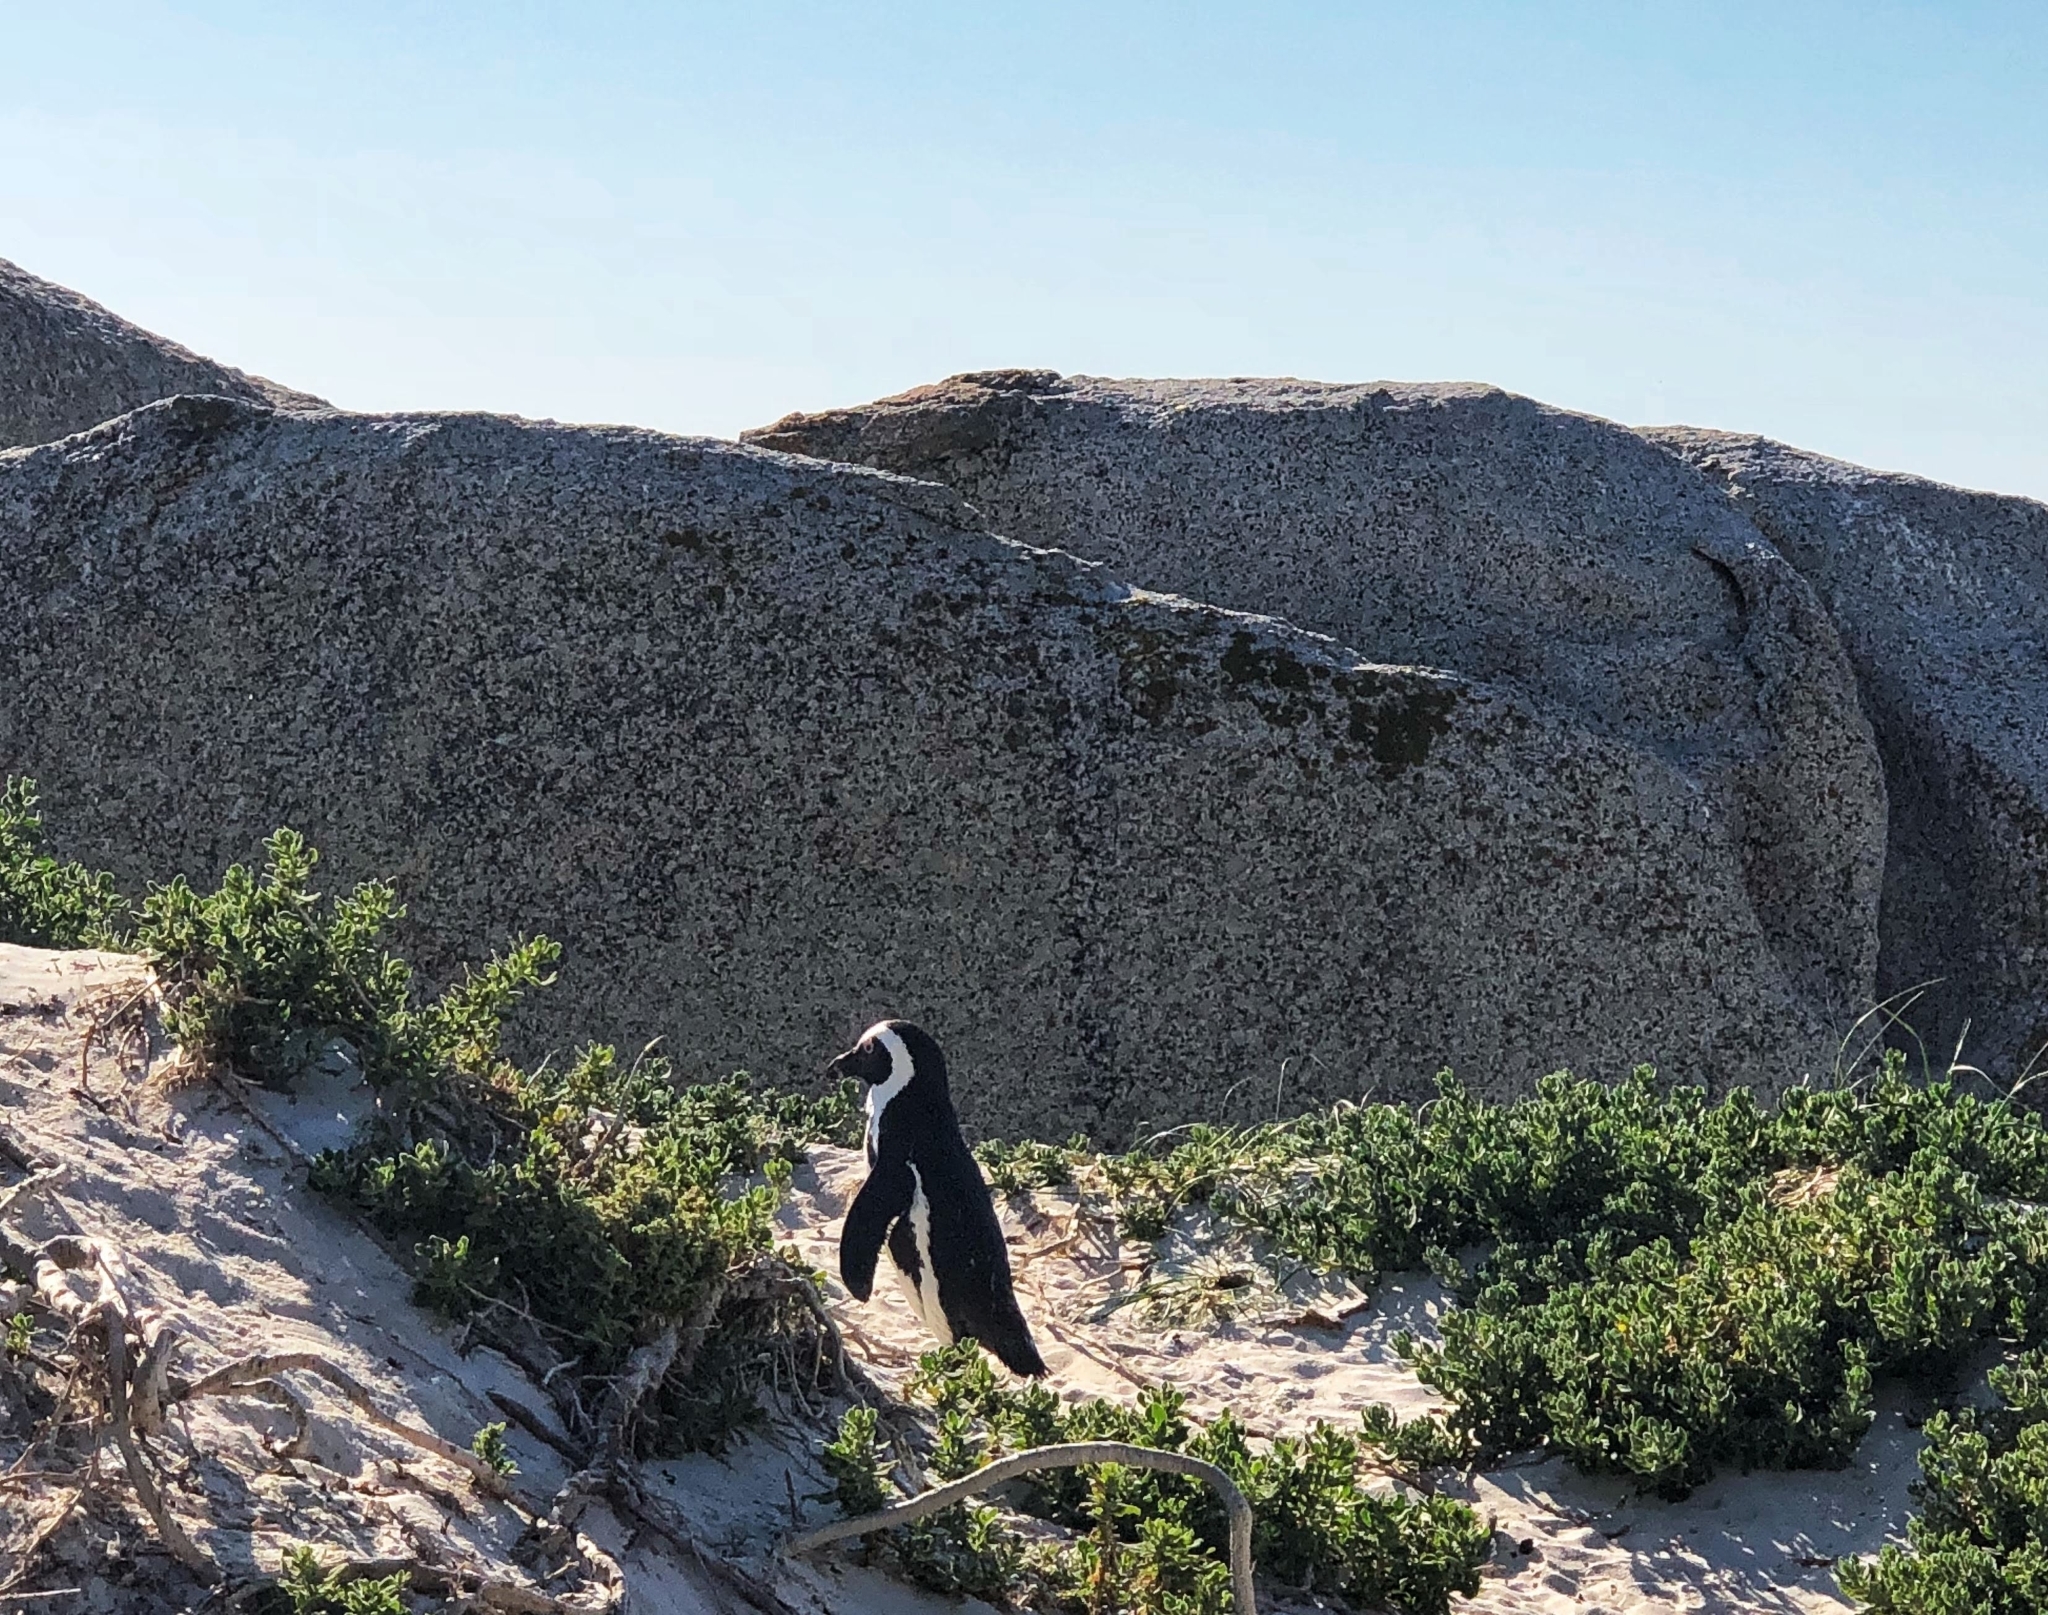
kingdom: Animalia
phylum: Chordata
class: Aves
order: Sphenisciformes
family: Spheniscidae
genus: Spheniscus
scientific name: Spheniscus demersus
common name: African penguin
